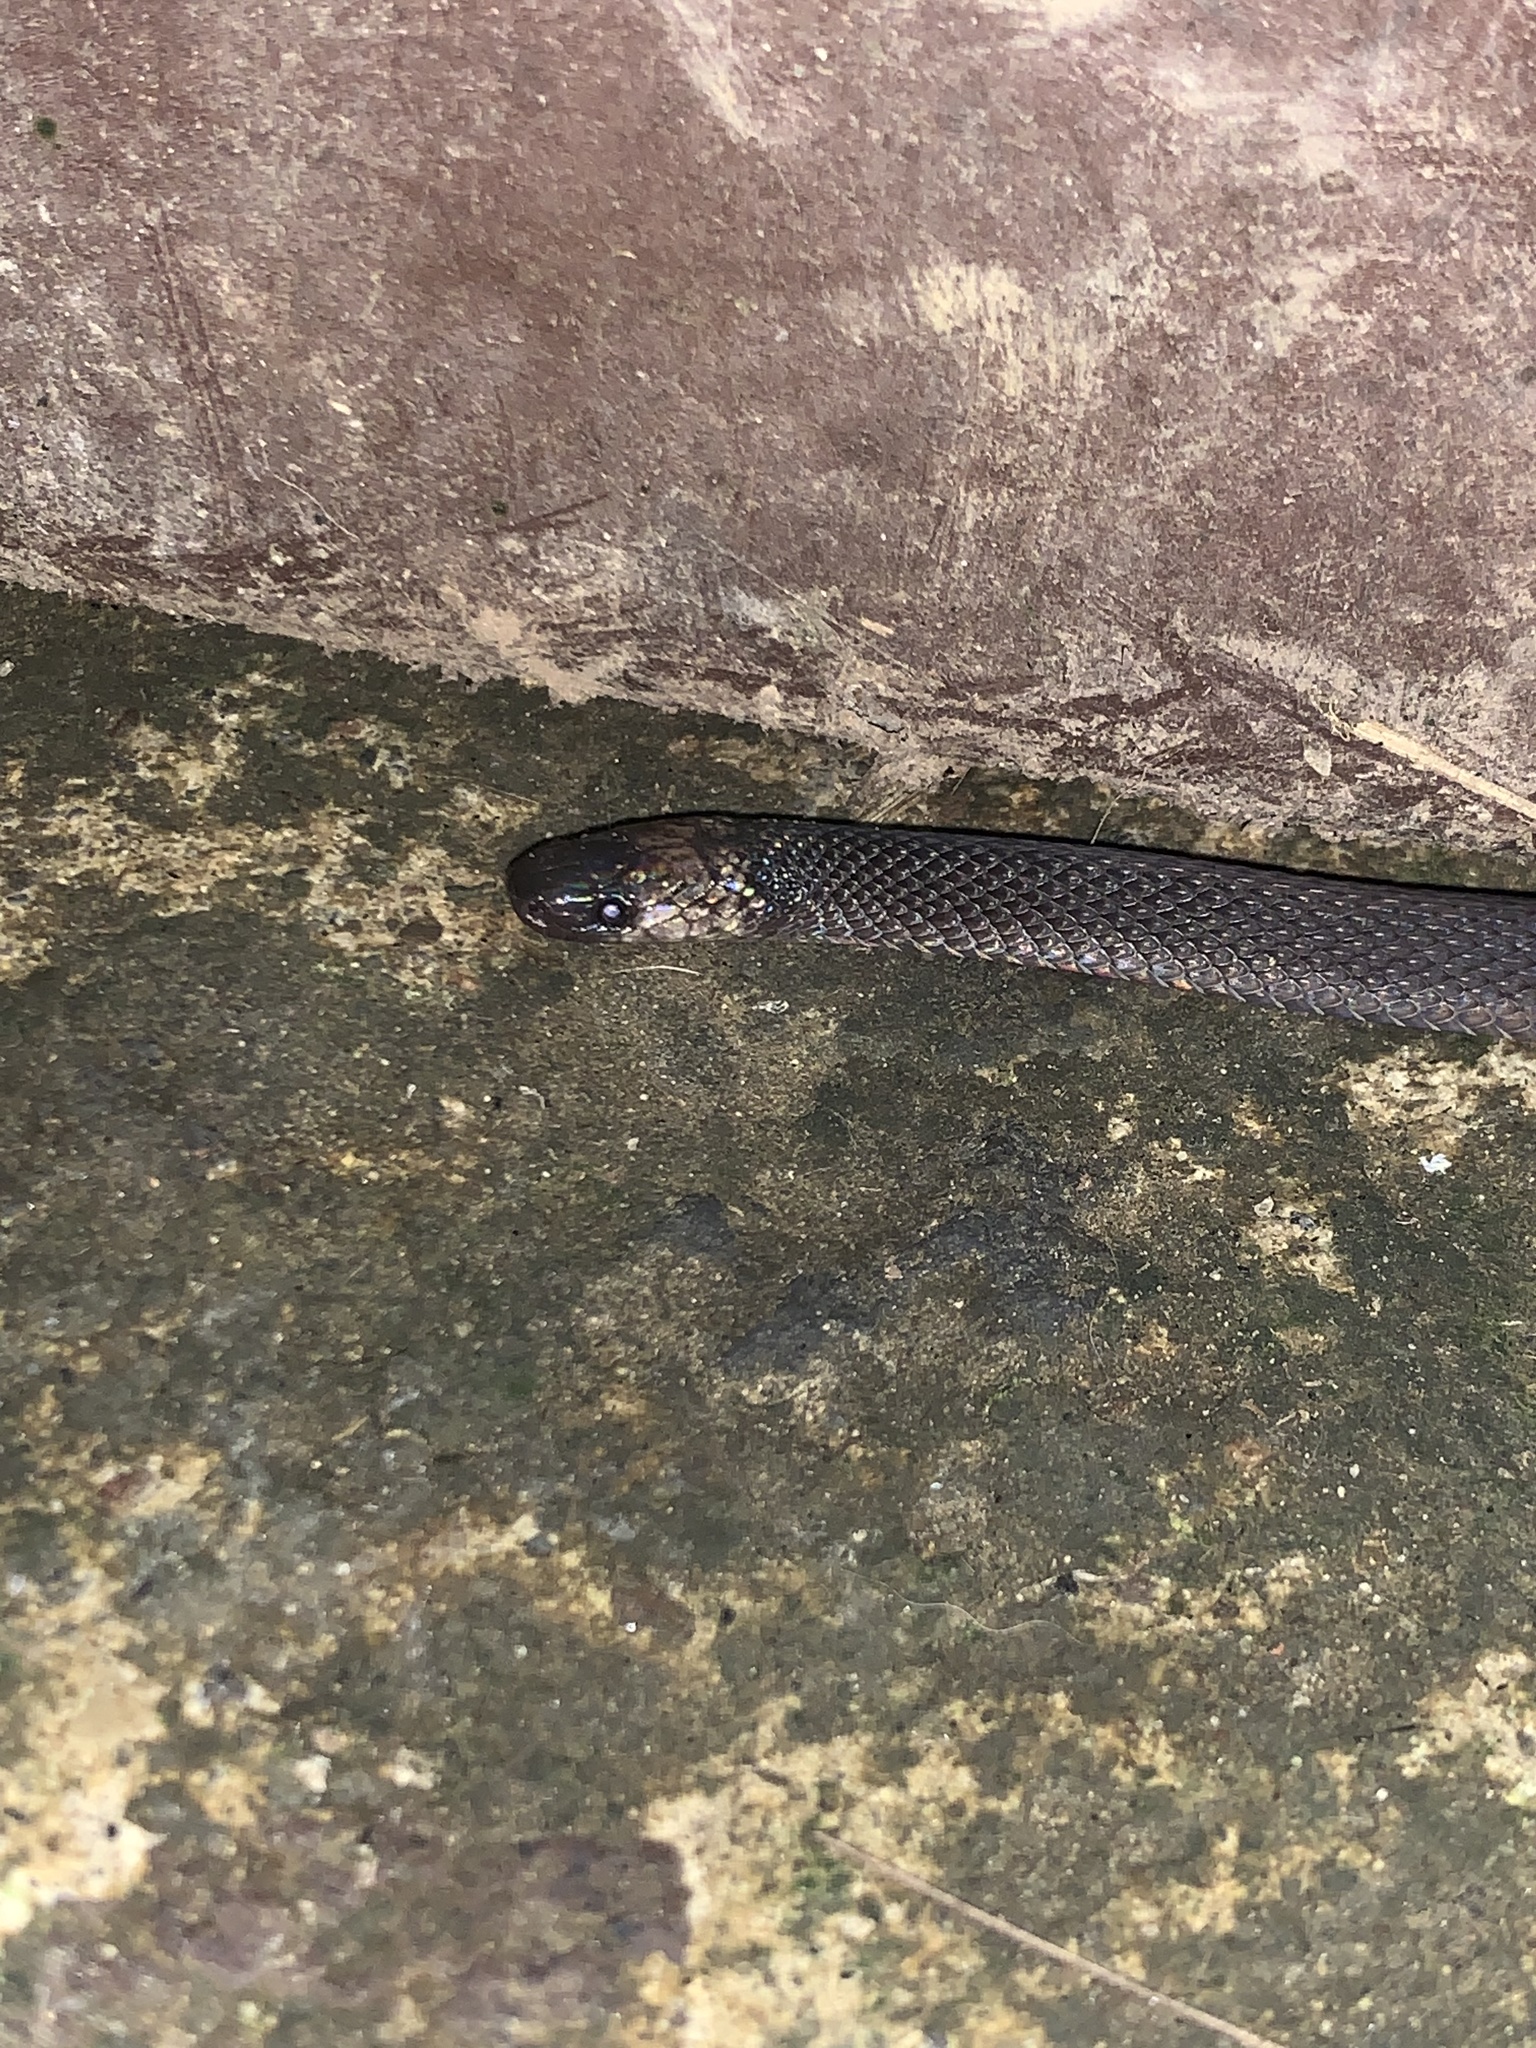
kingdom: Animalia
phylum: Chordata
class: Squamata
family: Colubridae
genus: Ninia
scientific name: Ninia atrata
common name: Hallowell's coffee snake
